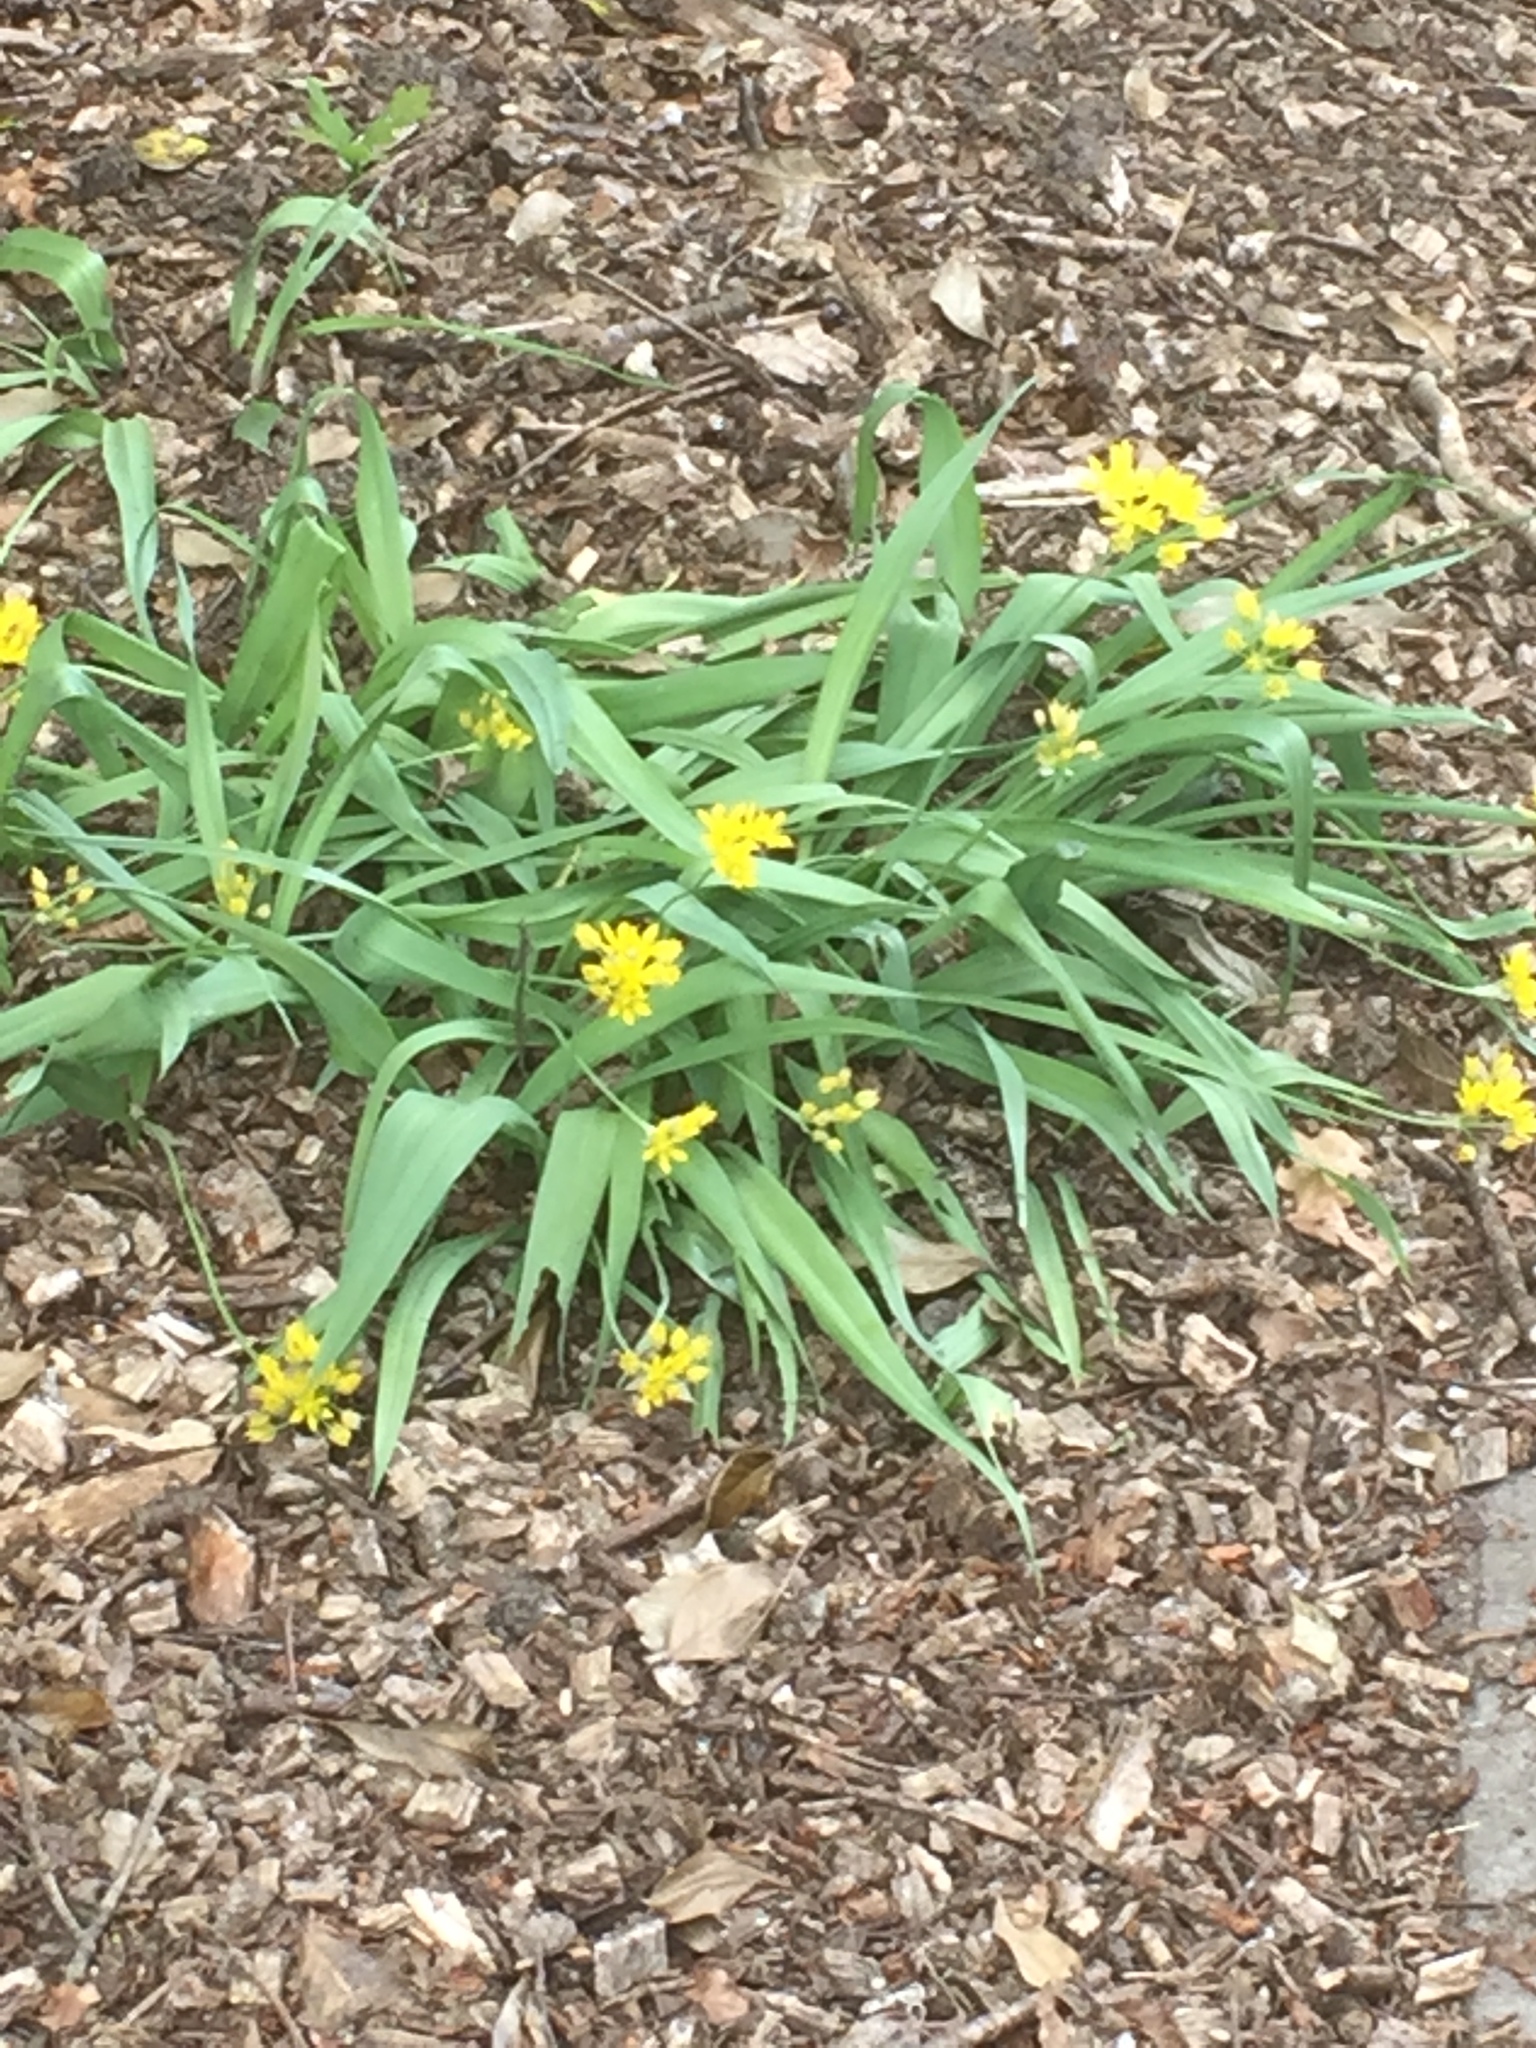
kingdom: Plantae
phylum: Tracheophyta
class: Liliopsida
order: Asparagales
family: Amaryllidaceae
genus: Allium
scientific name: Allium moly
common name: Yellow garlic
